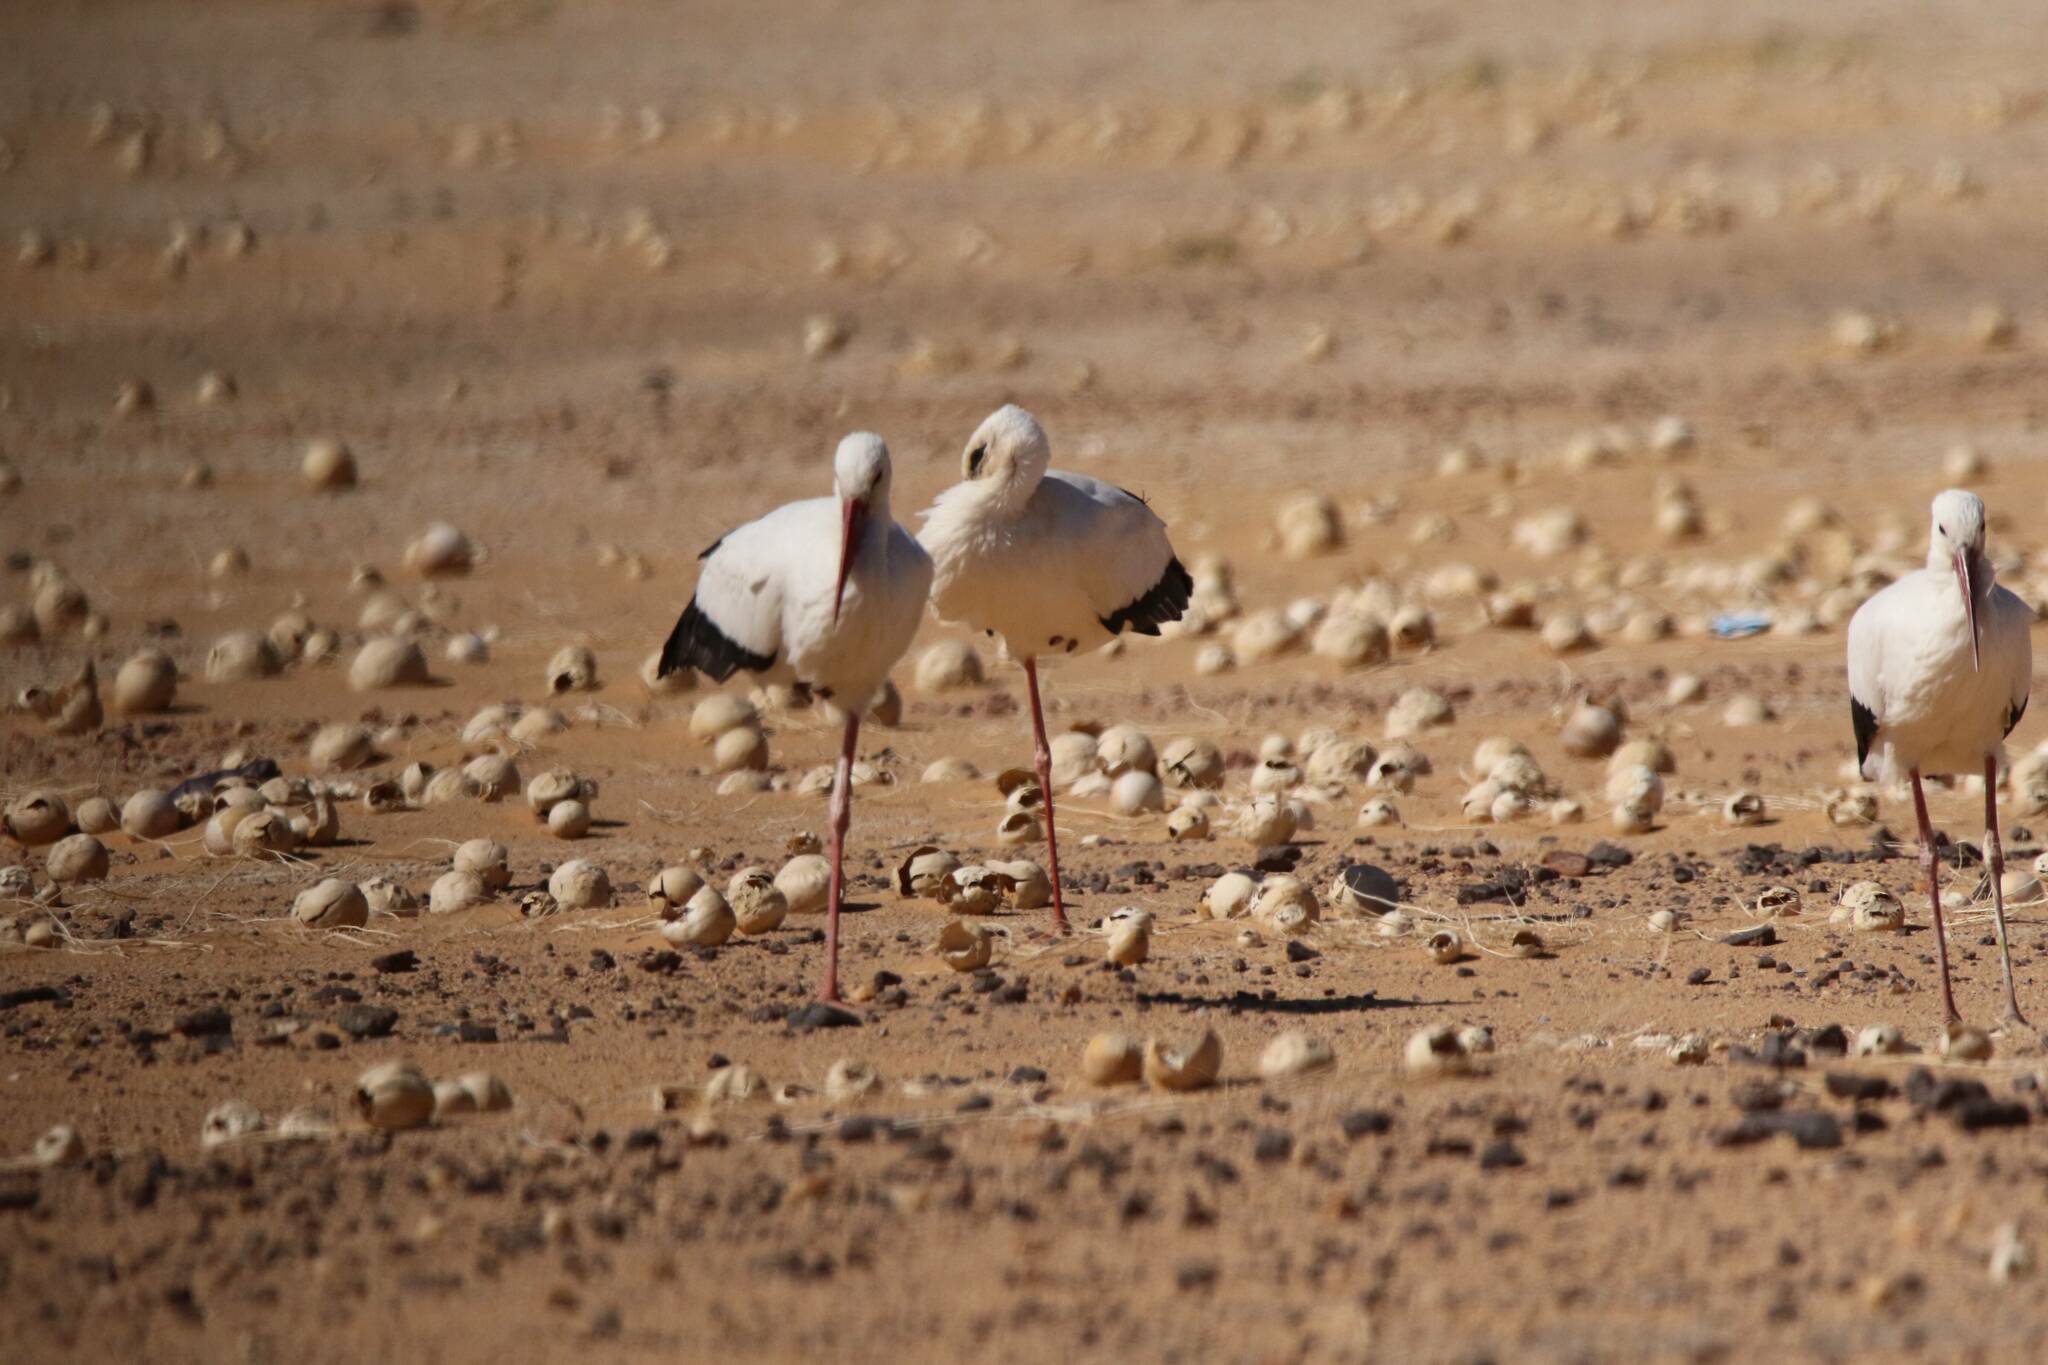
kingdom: Animalia
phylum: Chordata
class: Aves
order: Ciconiiformes
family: Ciconiidae
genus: Ciconia
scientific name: Ciconia ciconia
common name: White stork
